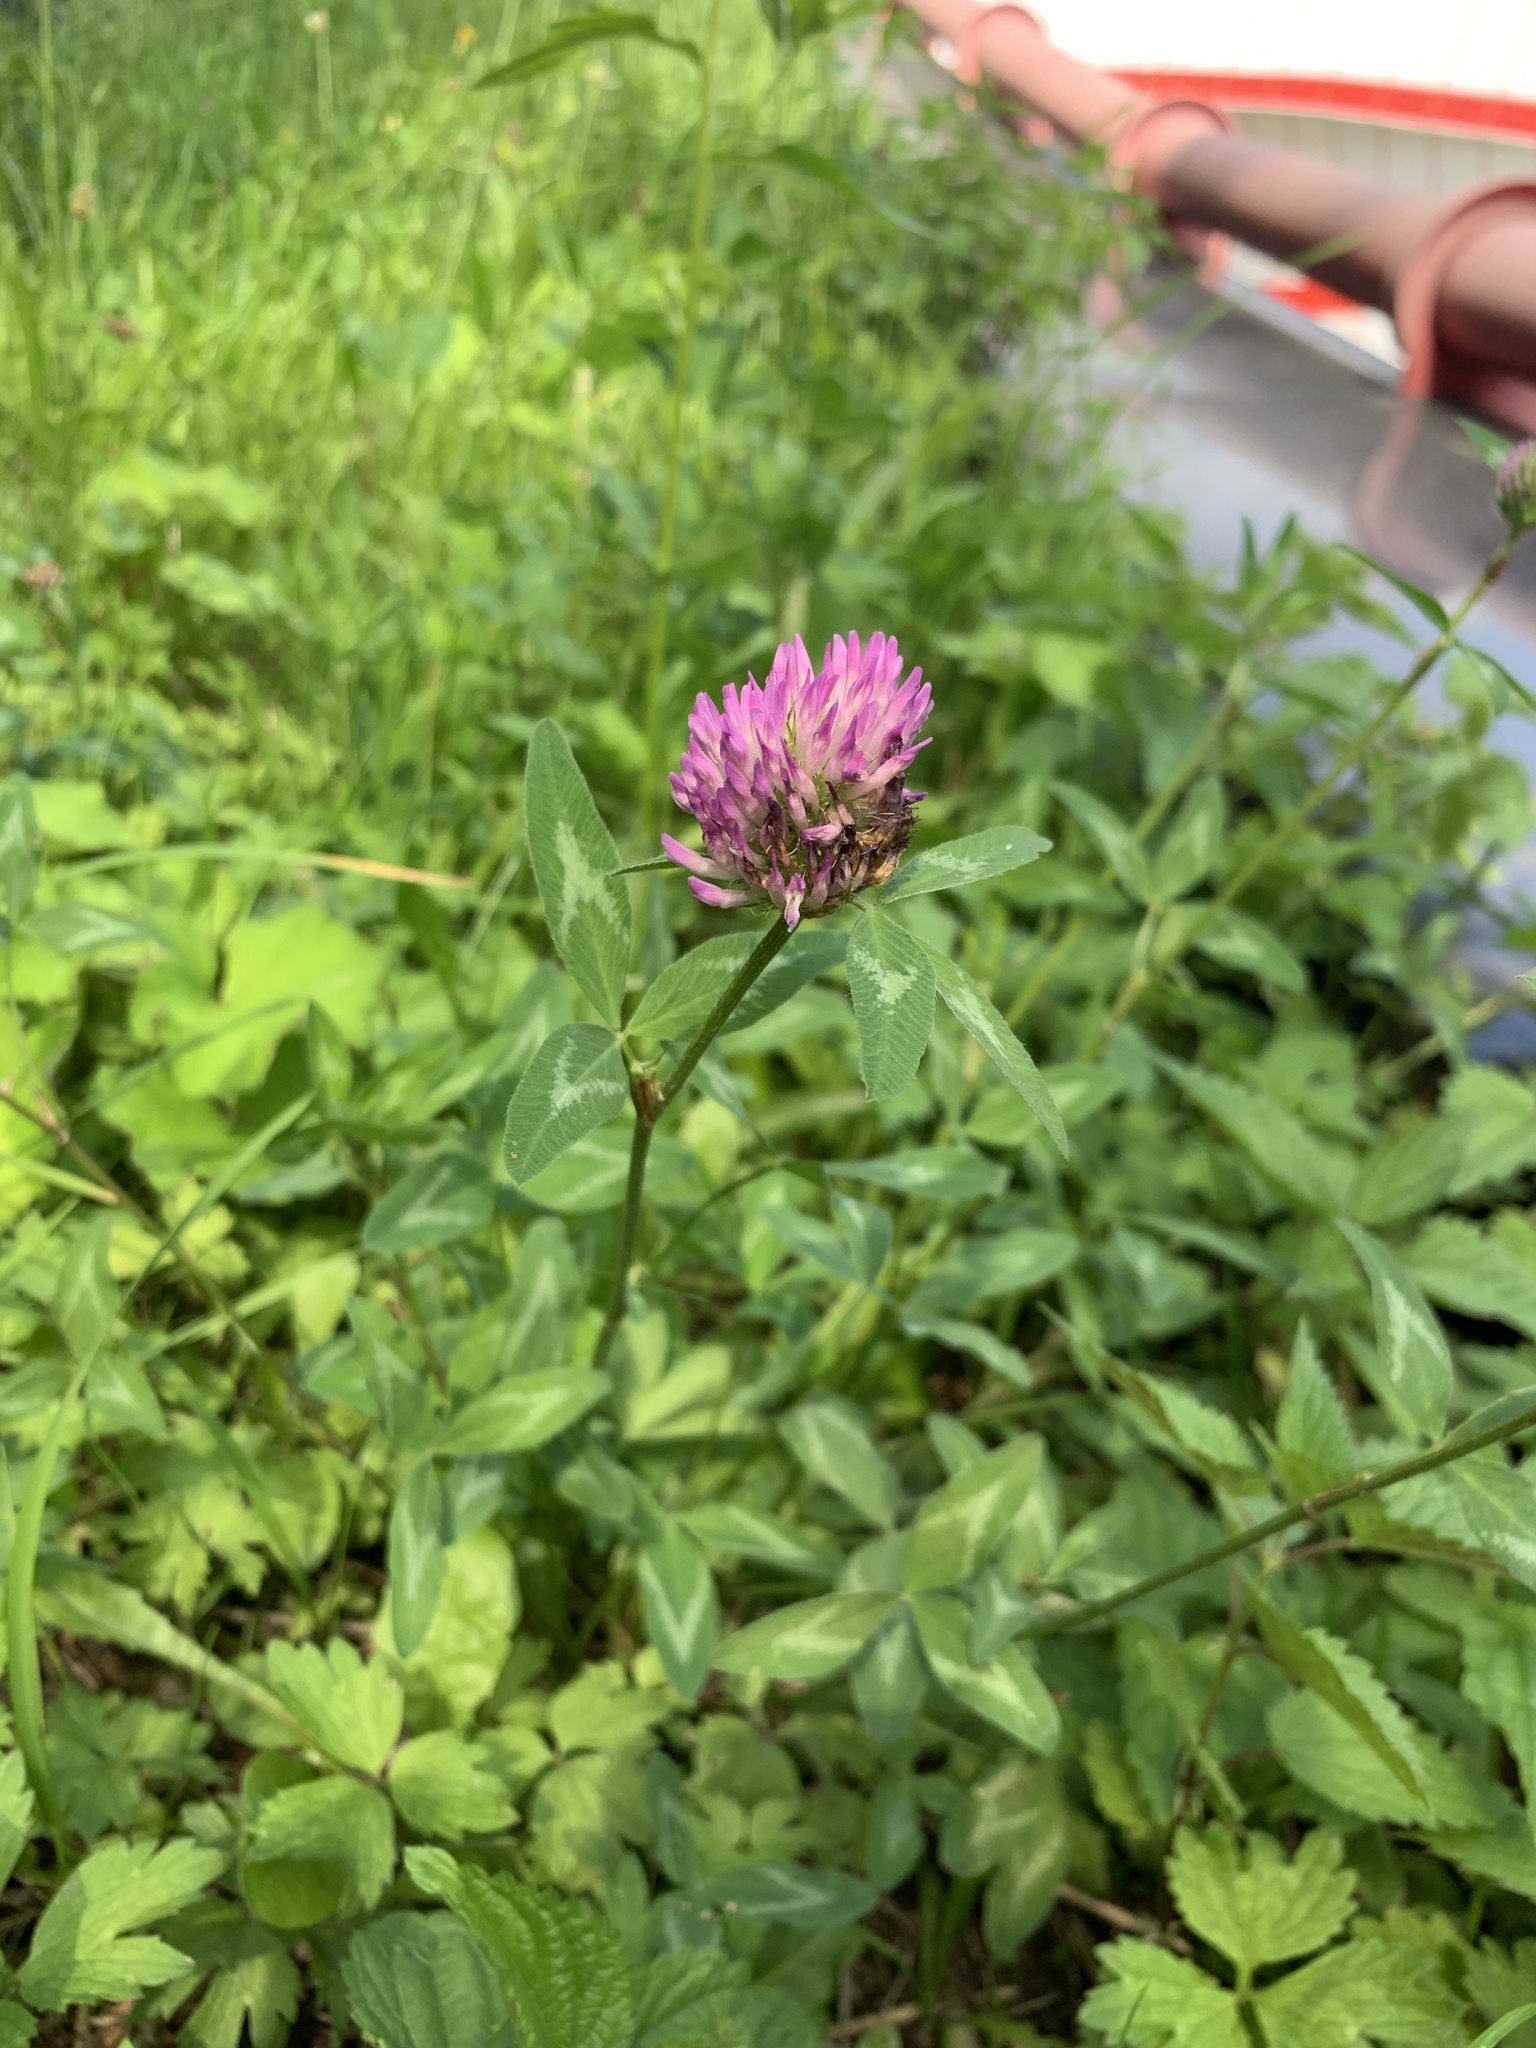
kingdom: Plantae
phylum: Tracheophyta
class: Magnoliopsida
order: Fabales
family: Fabaceae
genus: Trifolium
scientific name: Trifolium pratense
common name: Red clover
